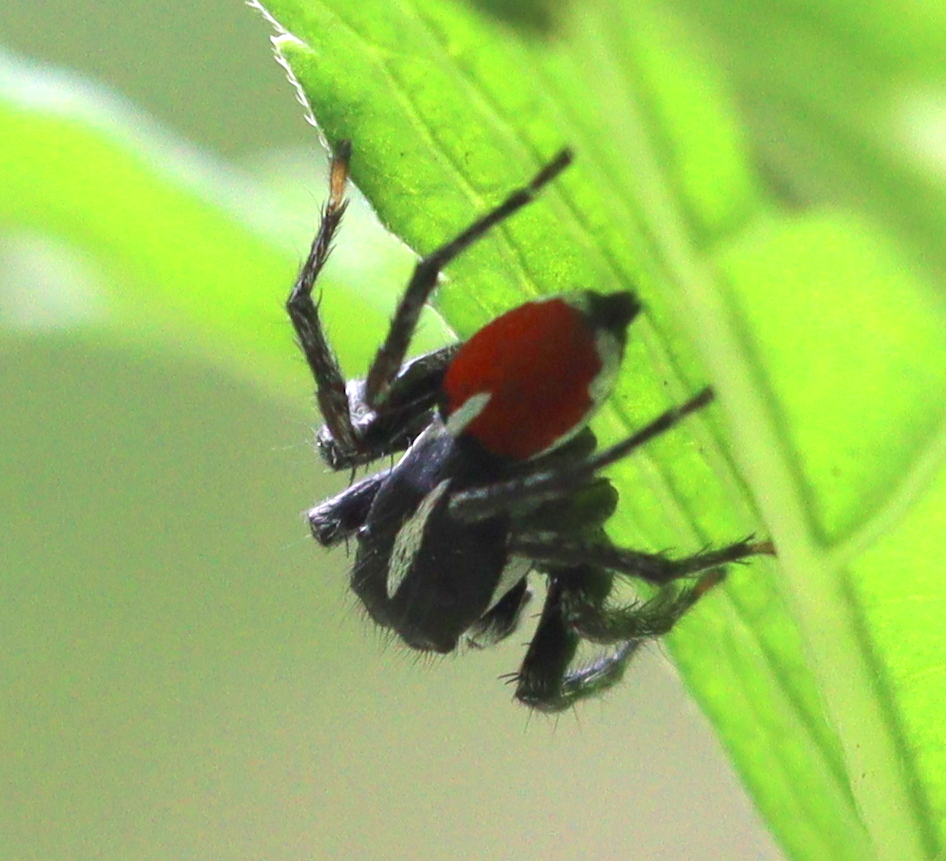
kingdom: Animalia
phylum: Arthropoda
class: Arachnida
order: Araneae
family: Salticidae
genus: Phiale
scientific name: Phiale gratiosa
